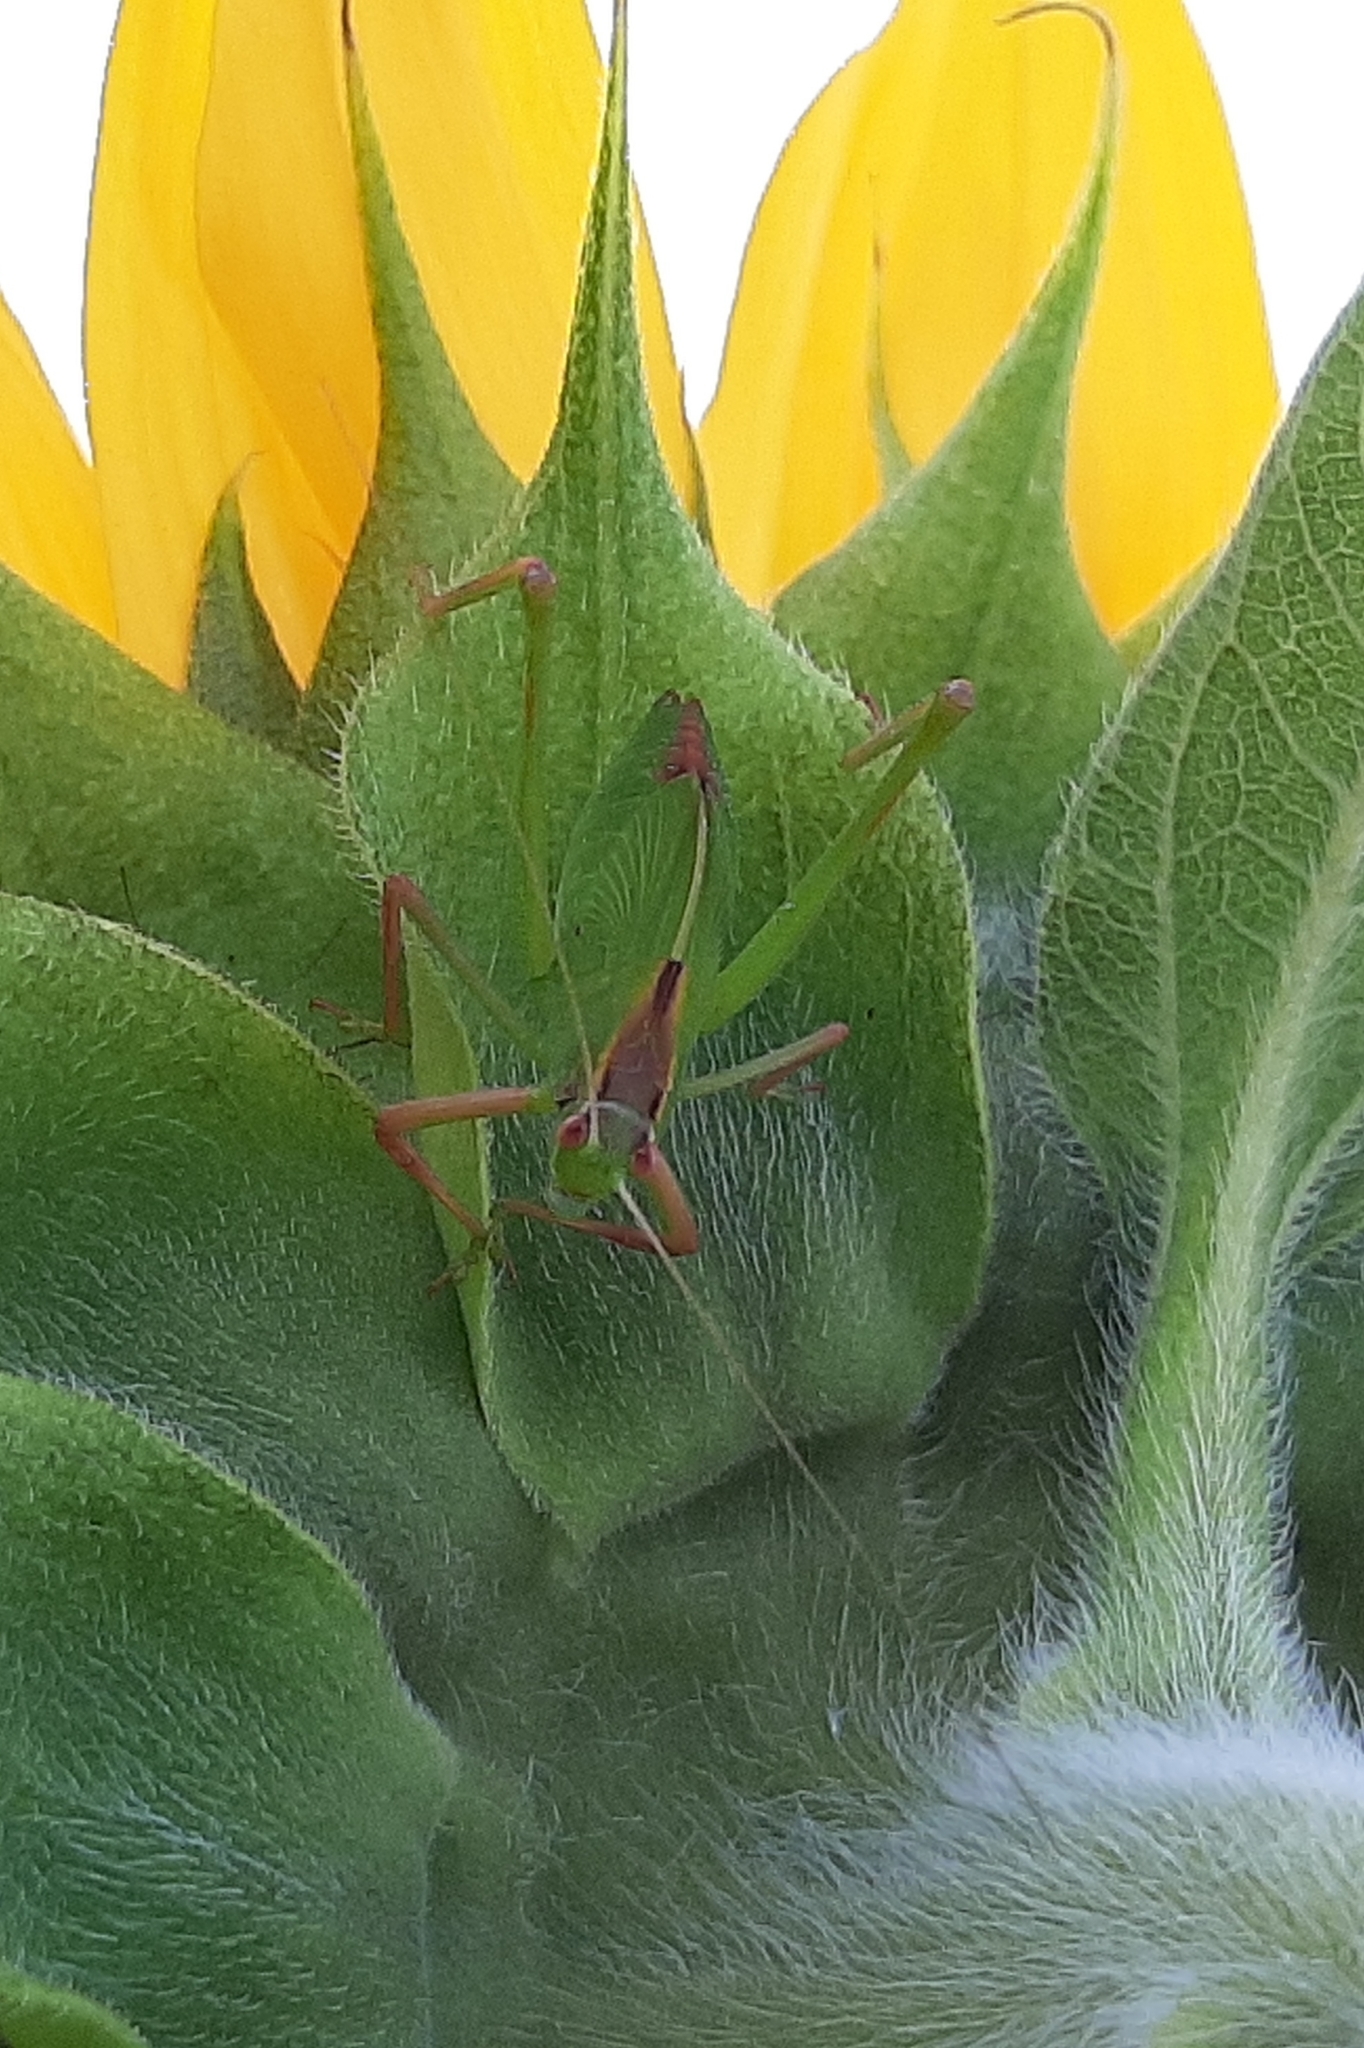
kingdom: Animalia
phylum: Arthropoda
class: Insecta
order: Orthoptera
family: Tettigoniidae
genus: Caedicia
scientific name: Caedicia simplex
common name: Common garden katydid
